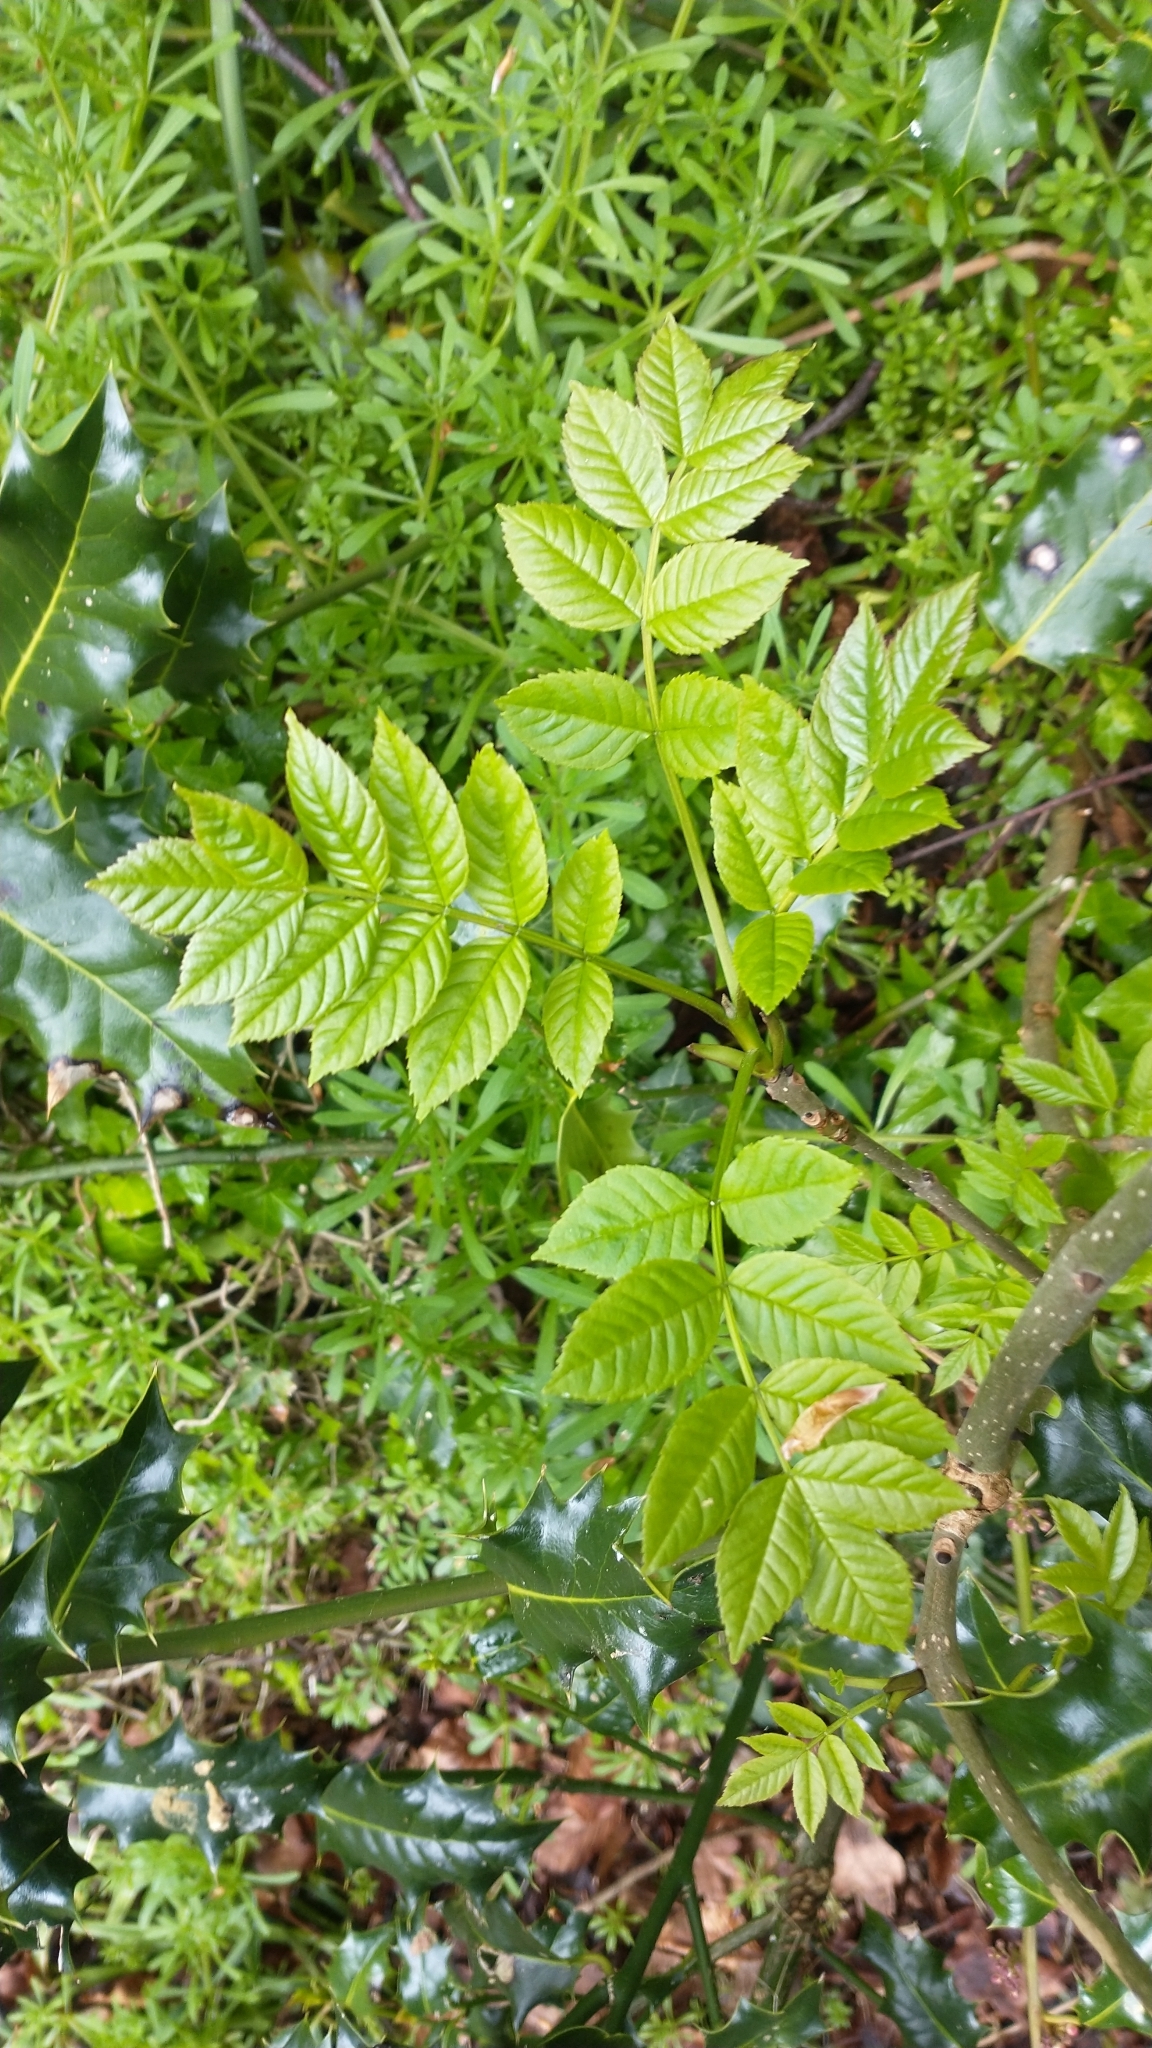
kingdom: Plantae
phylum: Tracheophyta
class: Magnoliopsida
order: Lamiales
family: Oleaceae
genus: Fraxinus
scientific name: Fraxinus excelsior
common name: European ash
